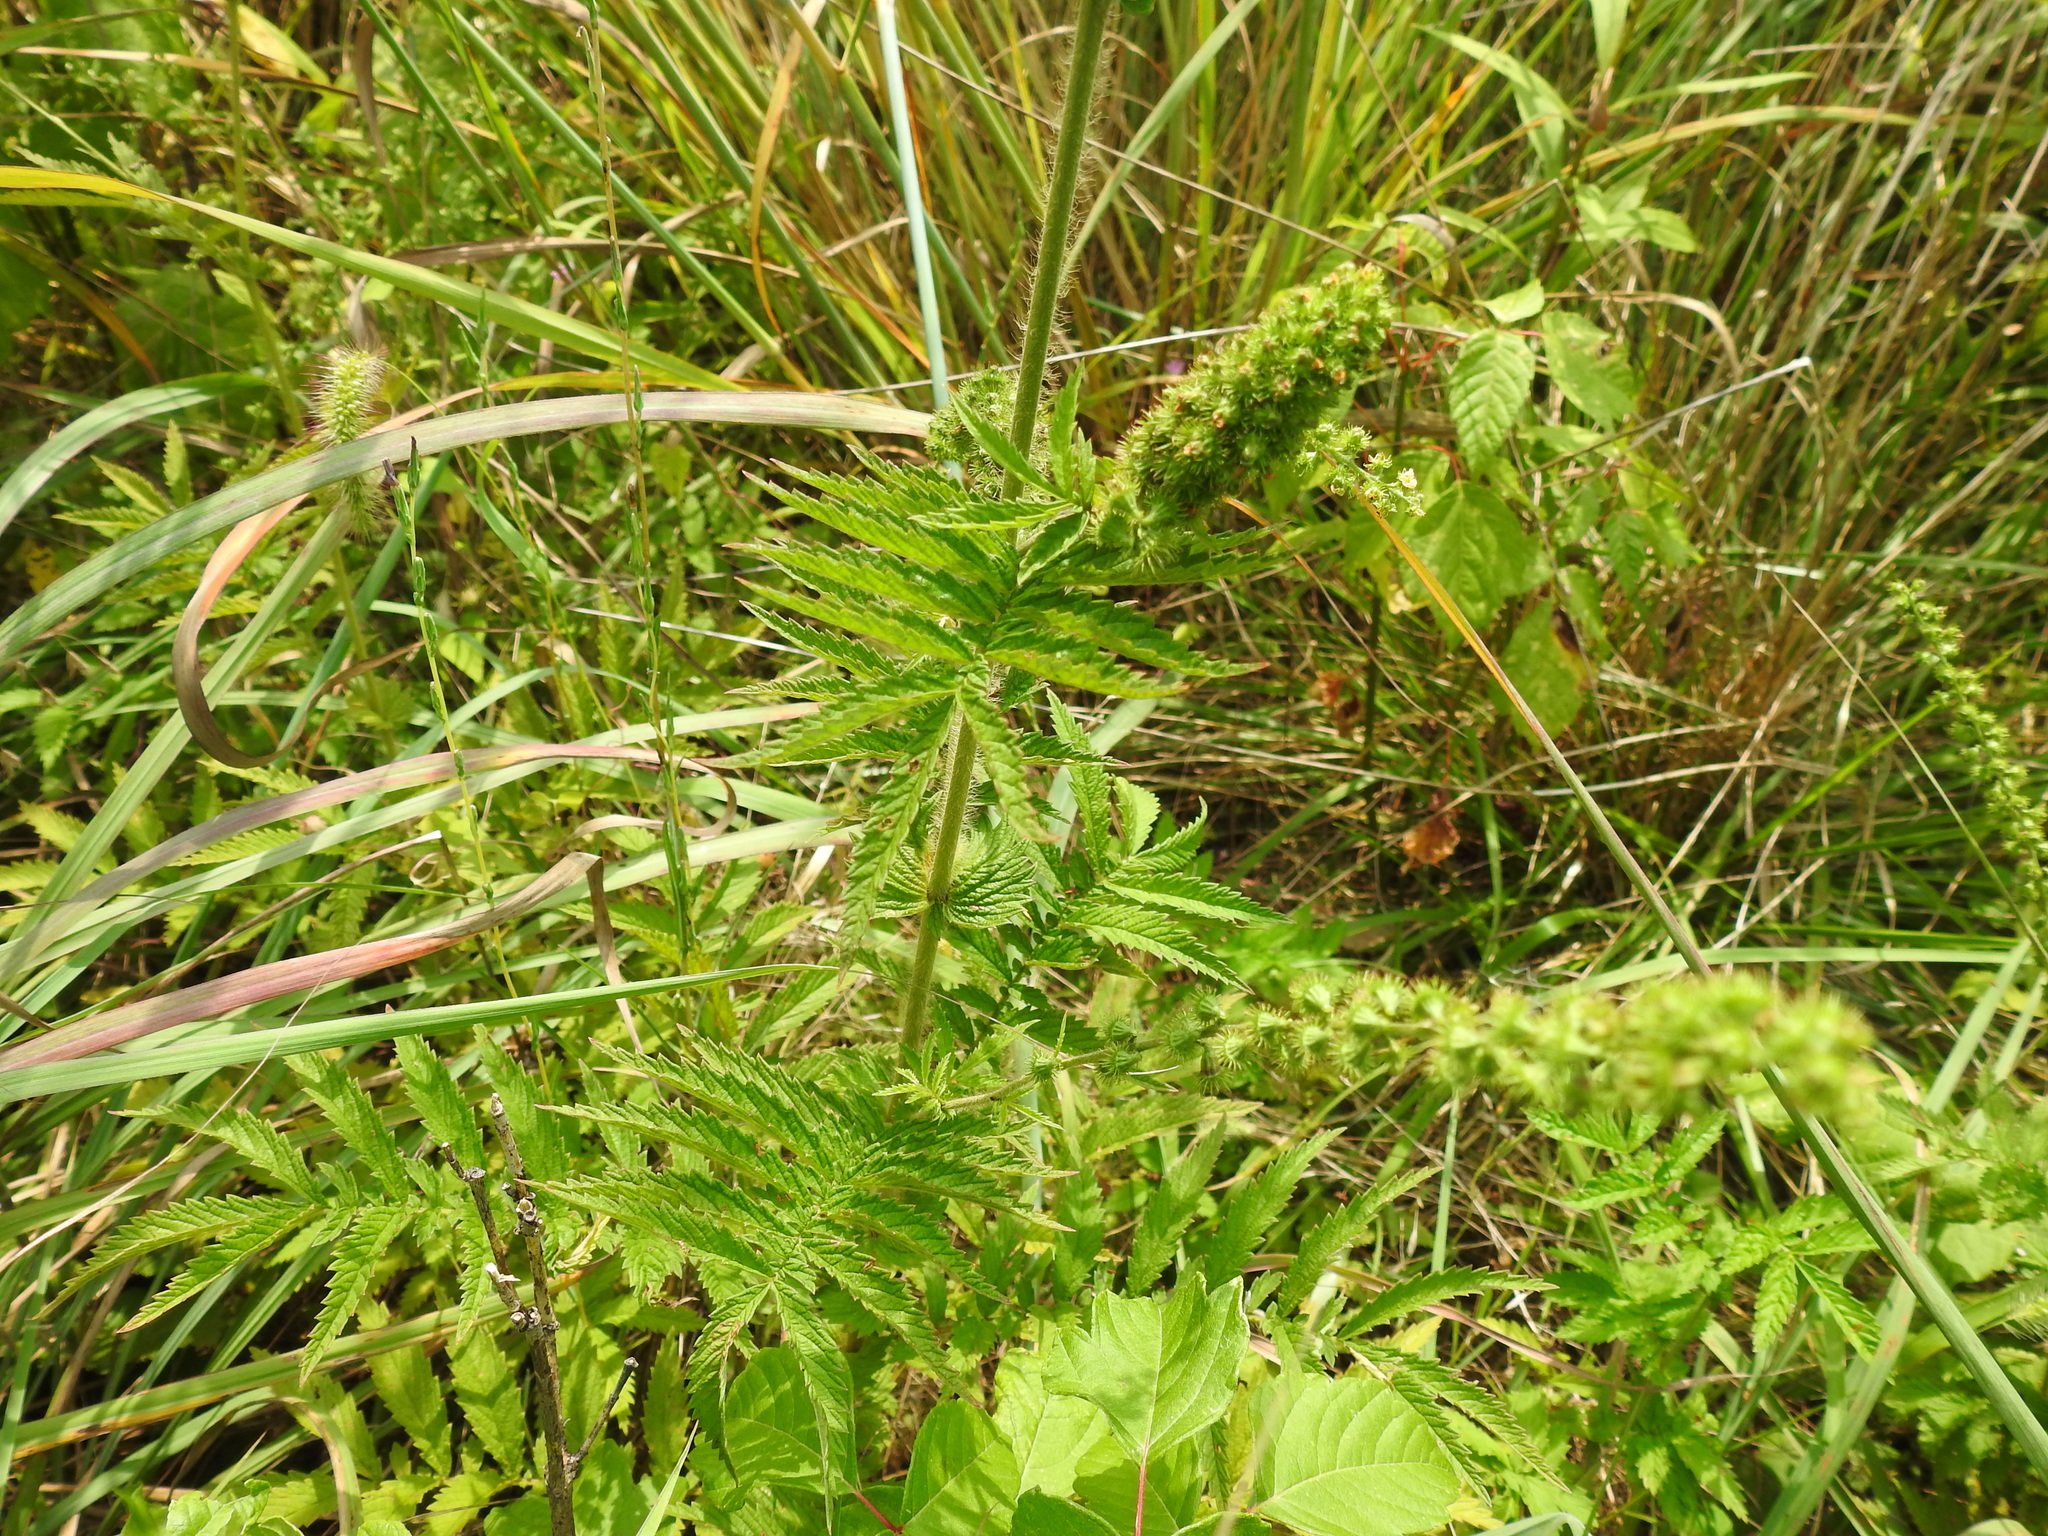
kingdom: Plantae
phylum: Tracheophyta
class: Magnoliopsida
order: Rosales
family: Rosaceae
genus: Agrimonia
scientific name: Agrimonia parviflora
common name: Harvest-lice
